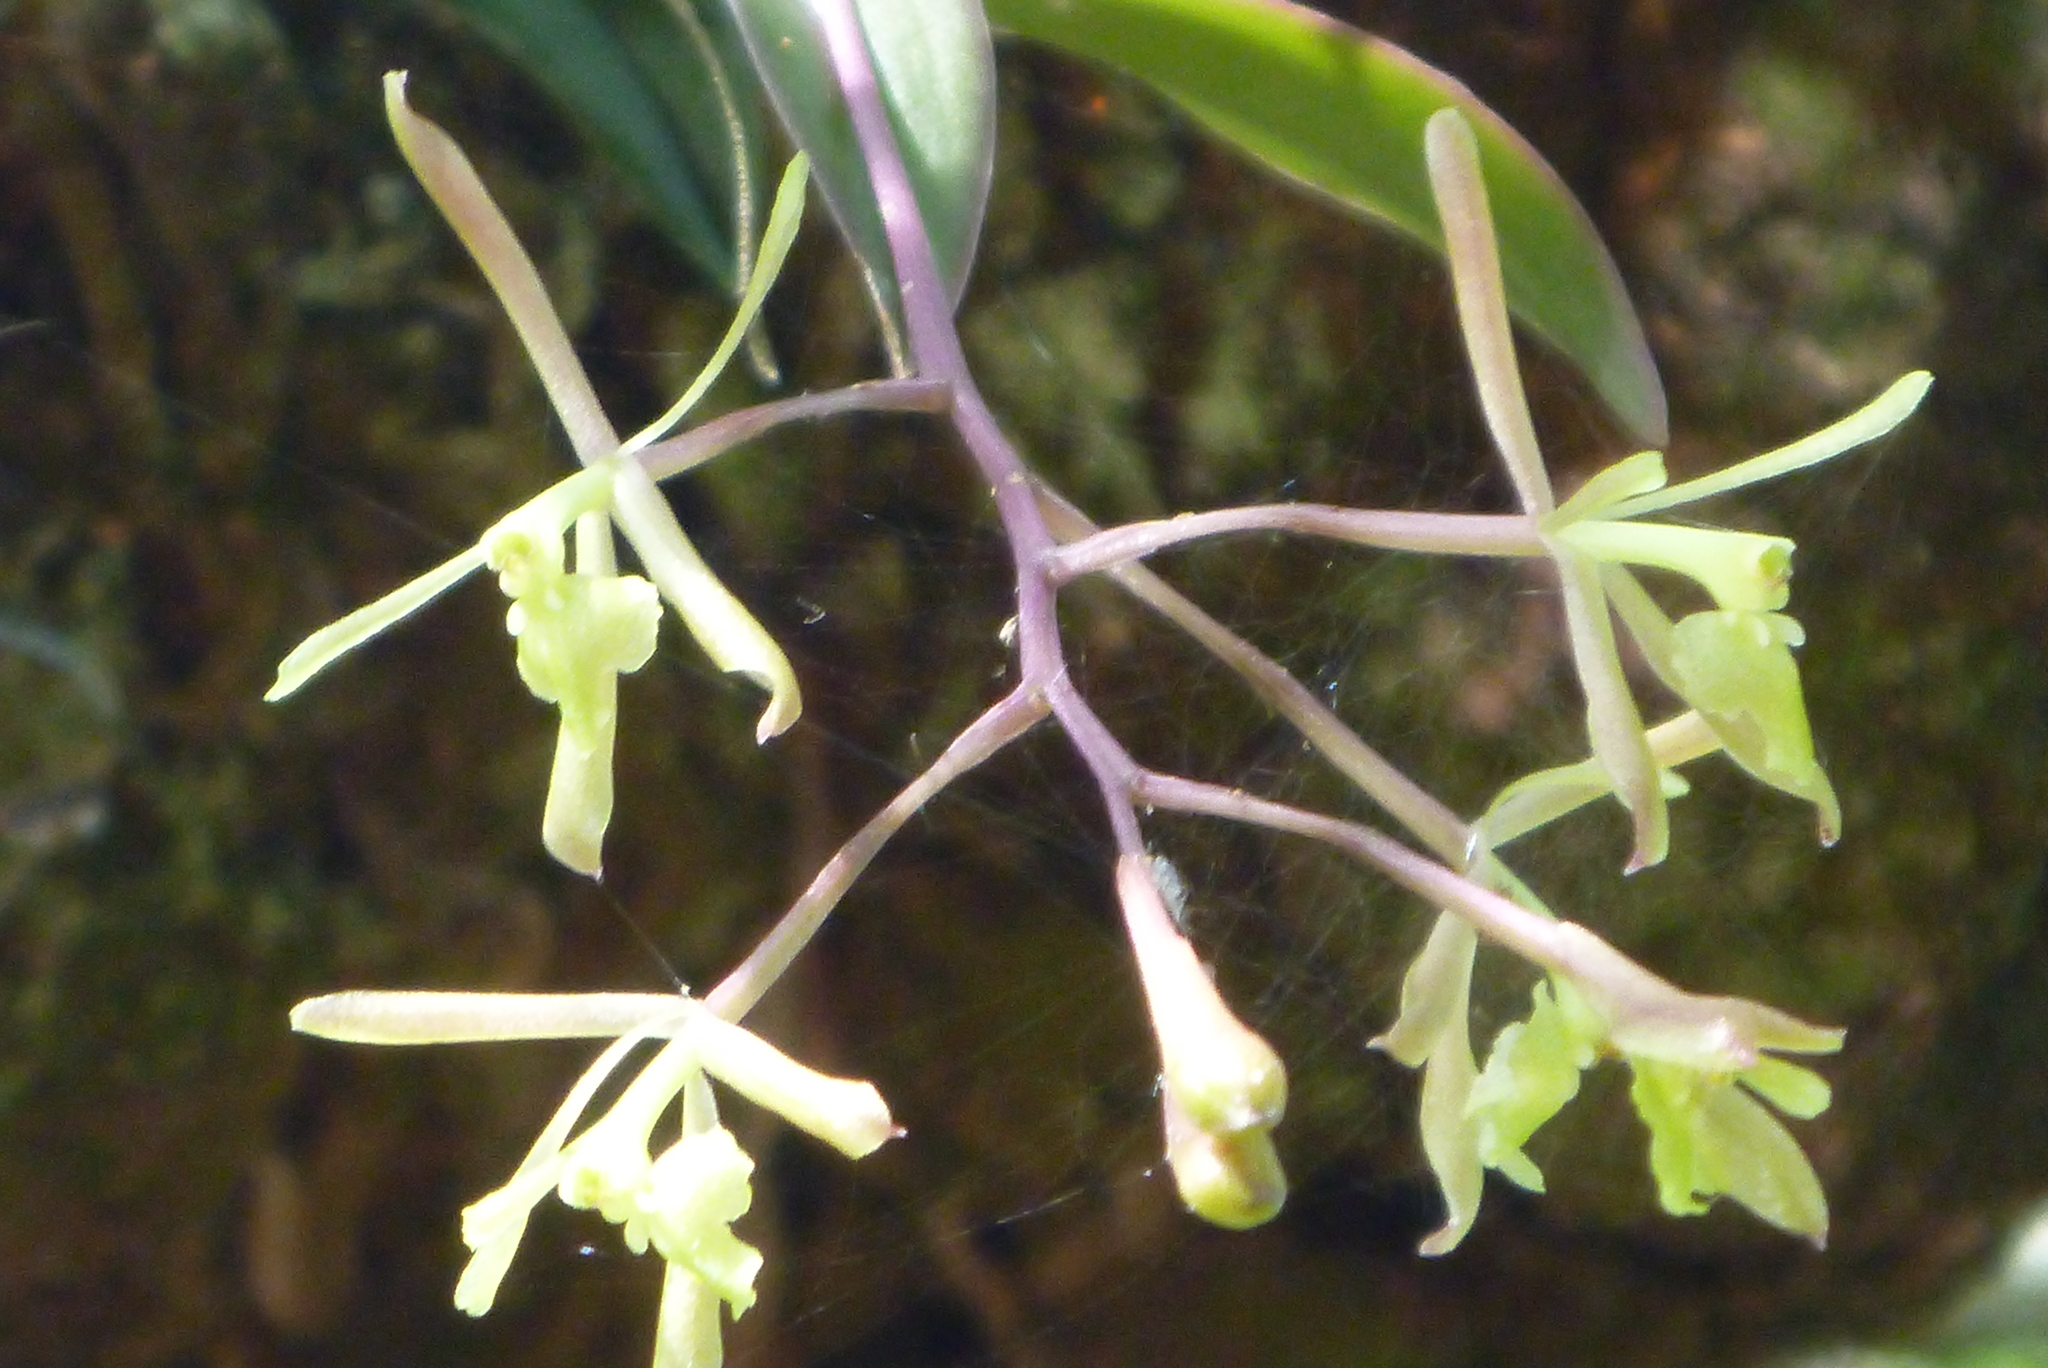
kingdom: Plantae
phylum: Tracheophyta
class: Liliopsida
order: Asparagales
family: Orchidaceae
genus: Epidendrum
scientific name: Epidendrum conopseum
